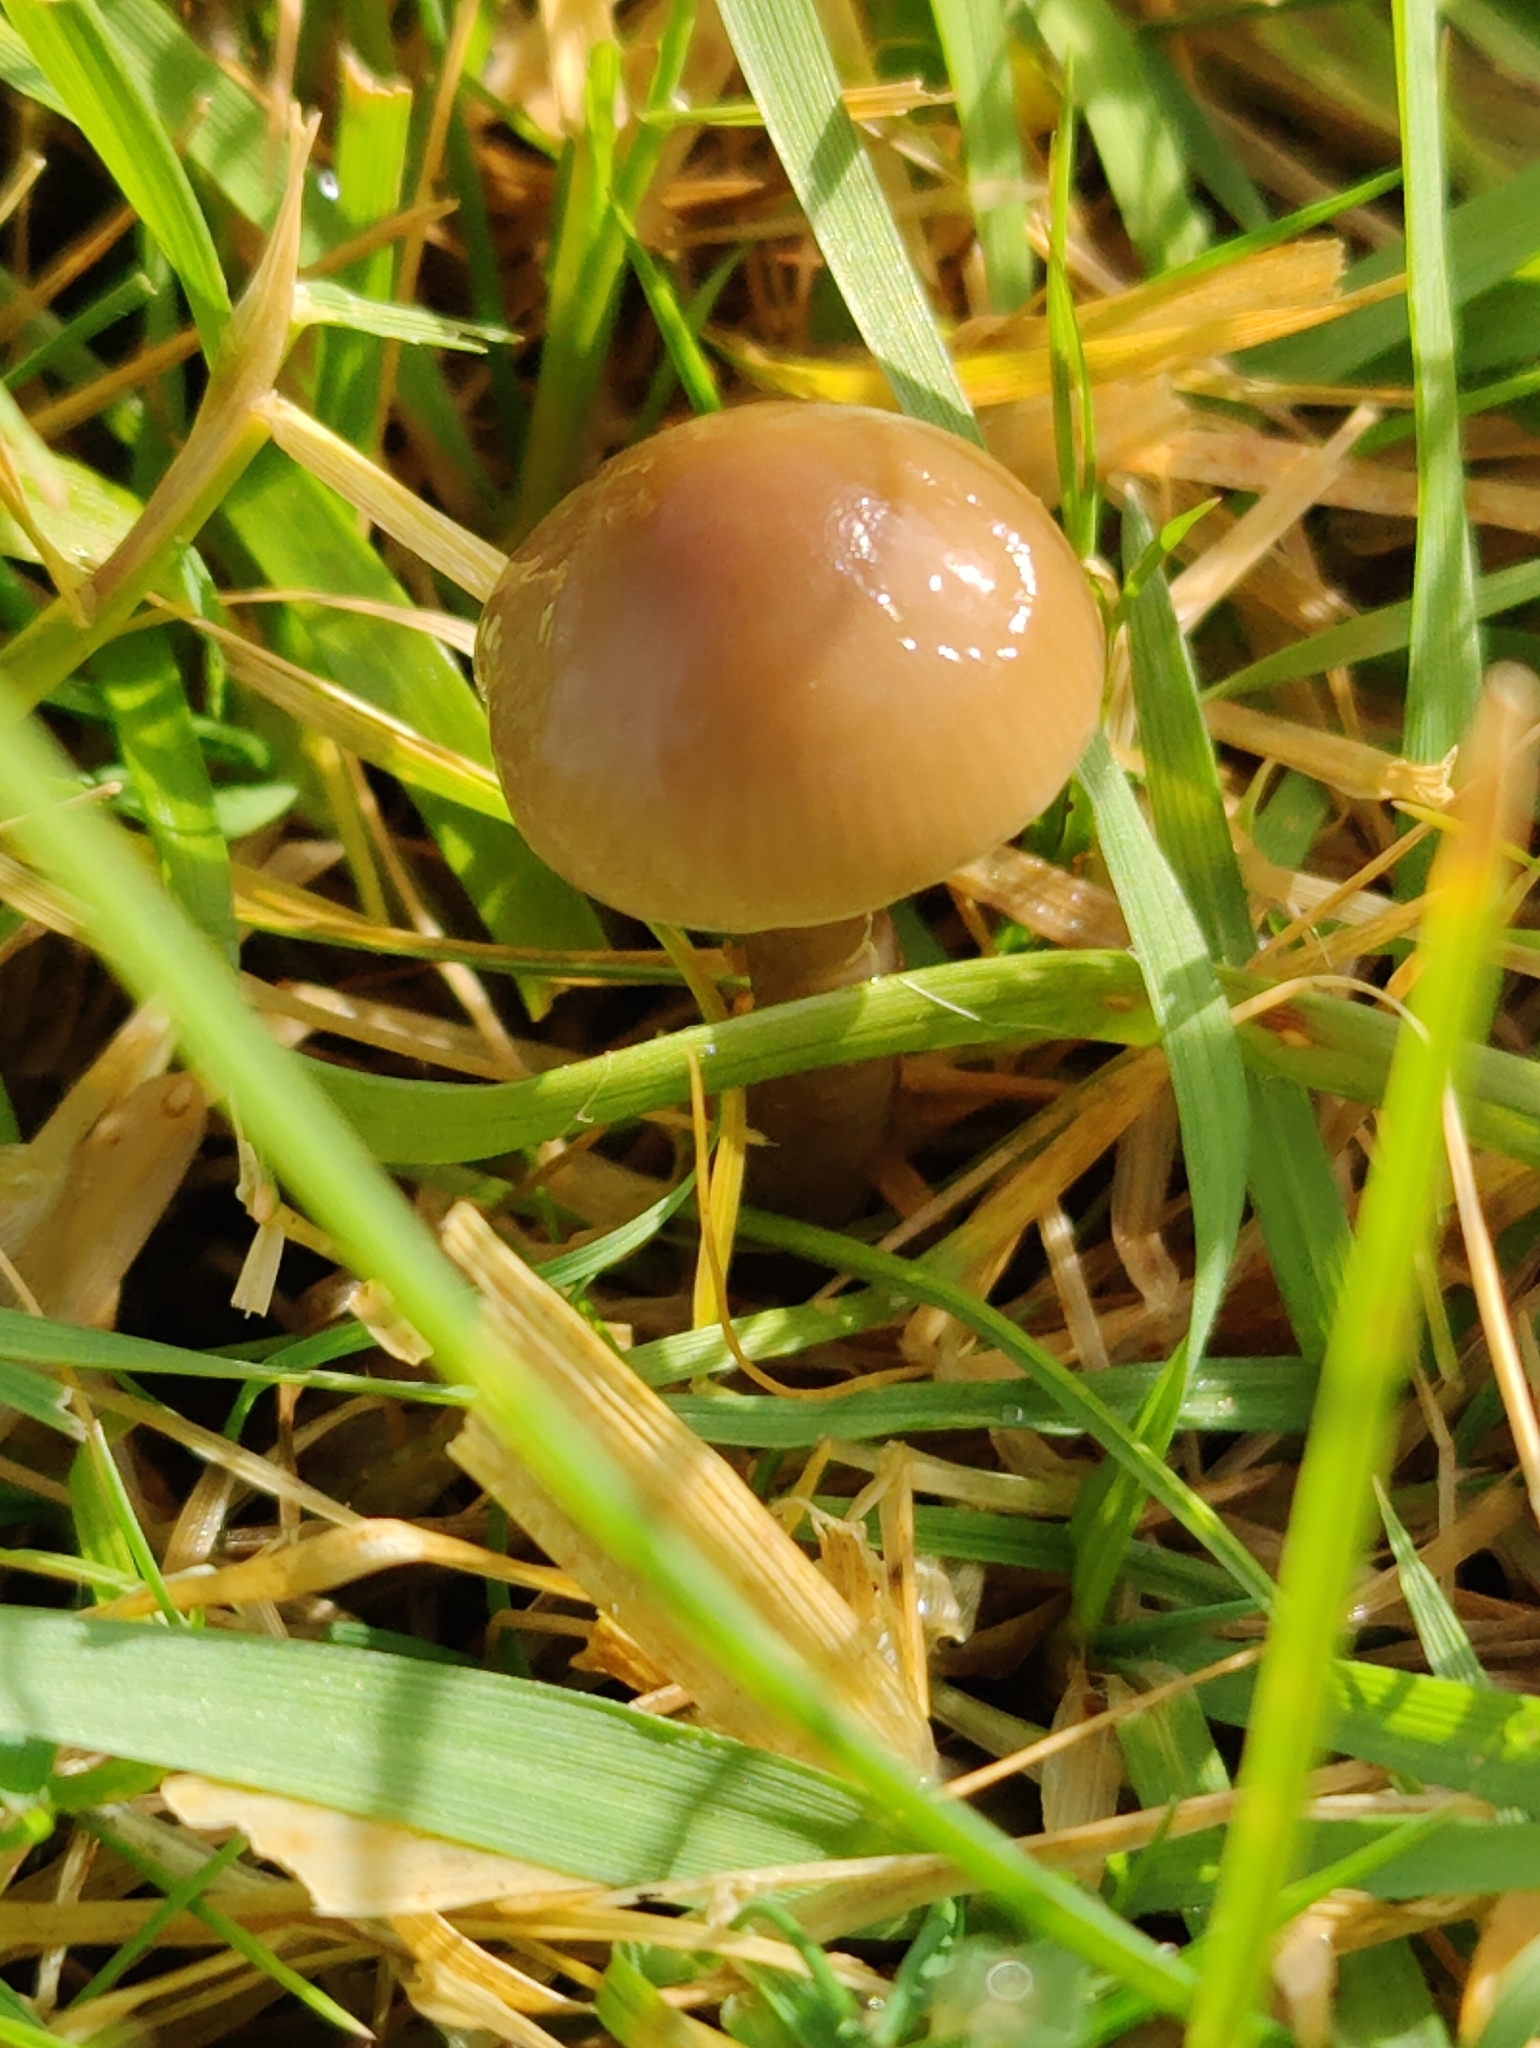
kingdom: Fungi
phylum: Basidiomycota
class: Agaricomycetes
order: Agaricales
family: Hygrophoraceae
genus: Gliophorus
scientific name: Gliophorus irrigatus
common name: Slimy waxcap
